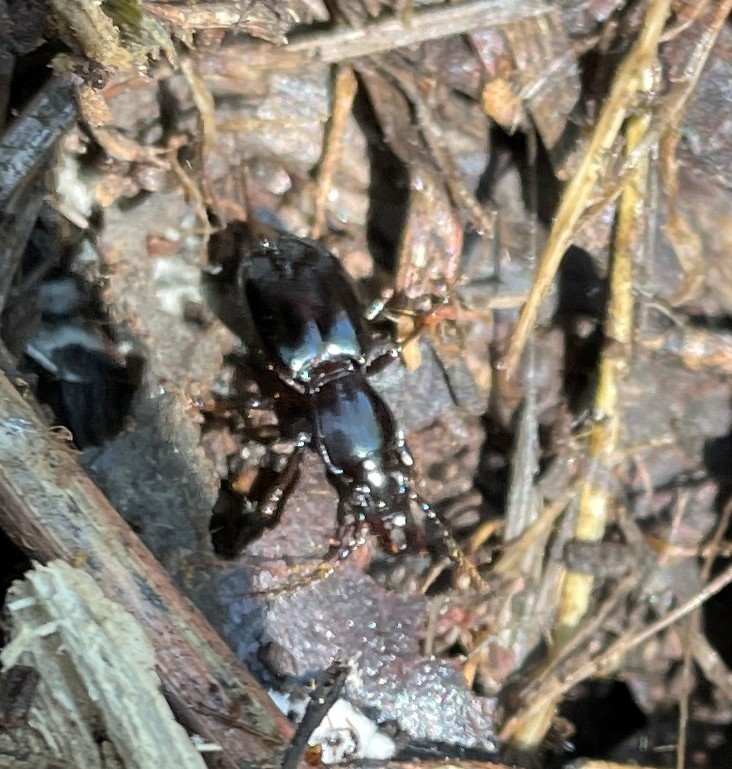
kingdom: Animalia
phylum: Arthropoda
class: Insecta
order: Coleoptera
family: Carabidae
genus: Promecognathus
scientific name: Promecognathus laevissimus
